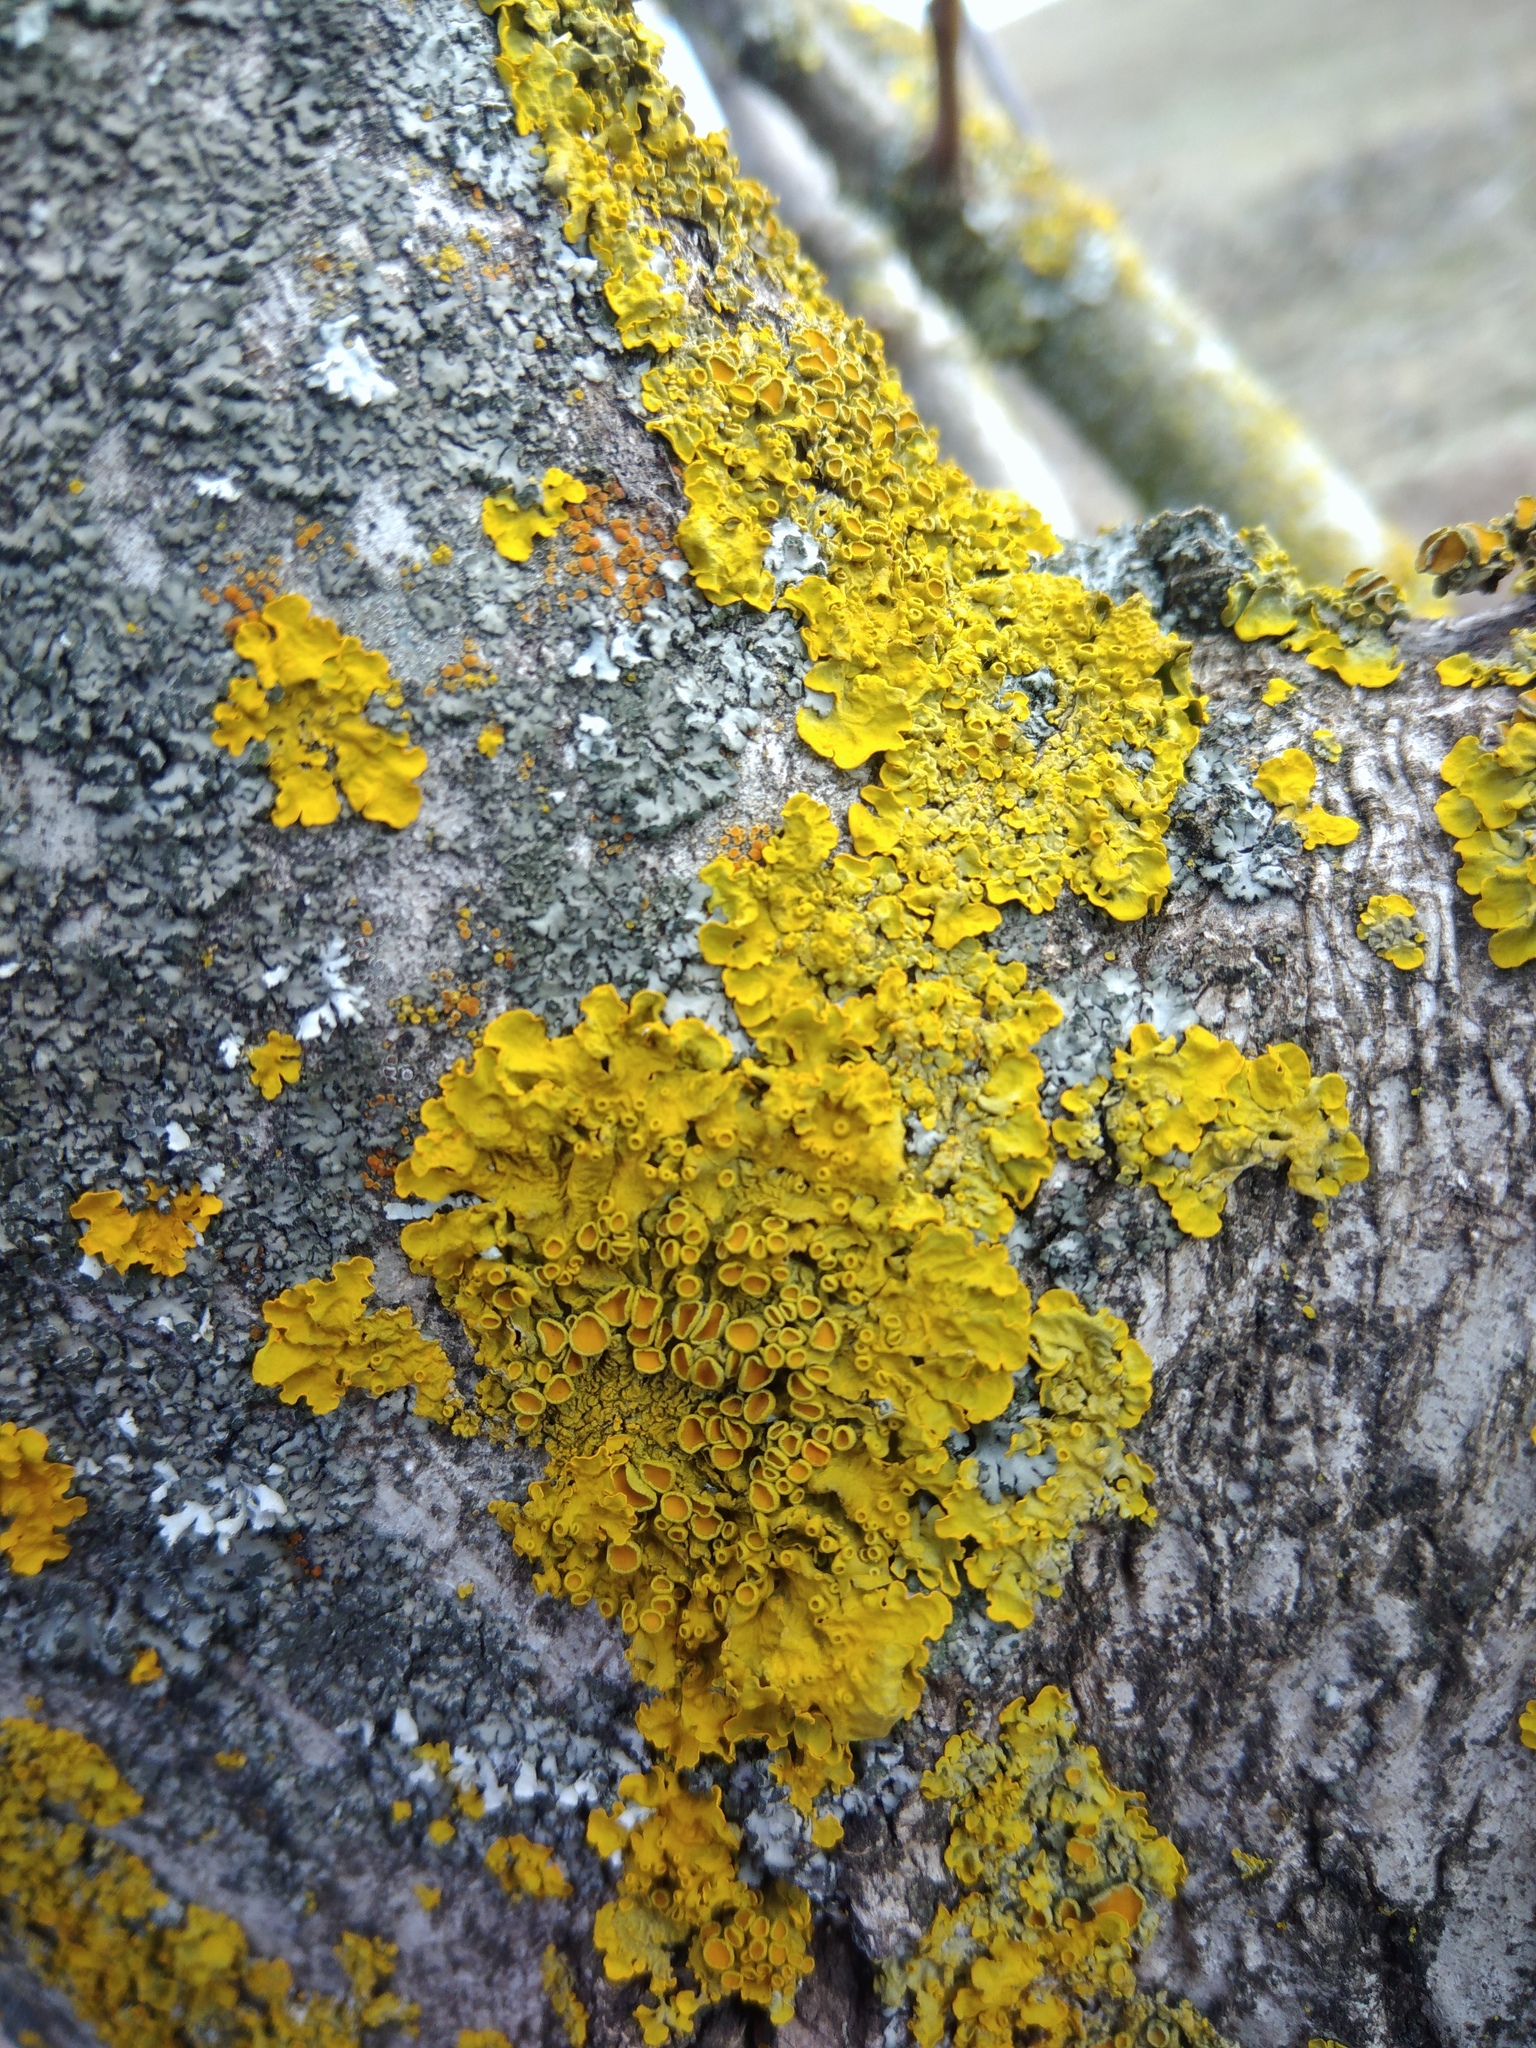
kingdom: Fungi
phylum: Ascomycota
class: Lecanoromycetes
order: Teloschistales
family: Teloschistaceae
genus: Xanthoria
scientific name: Xanthoria parietina
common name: Common orange lichen
